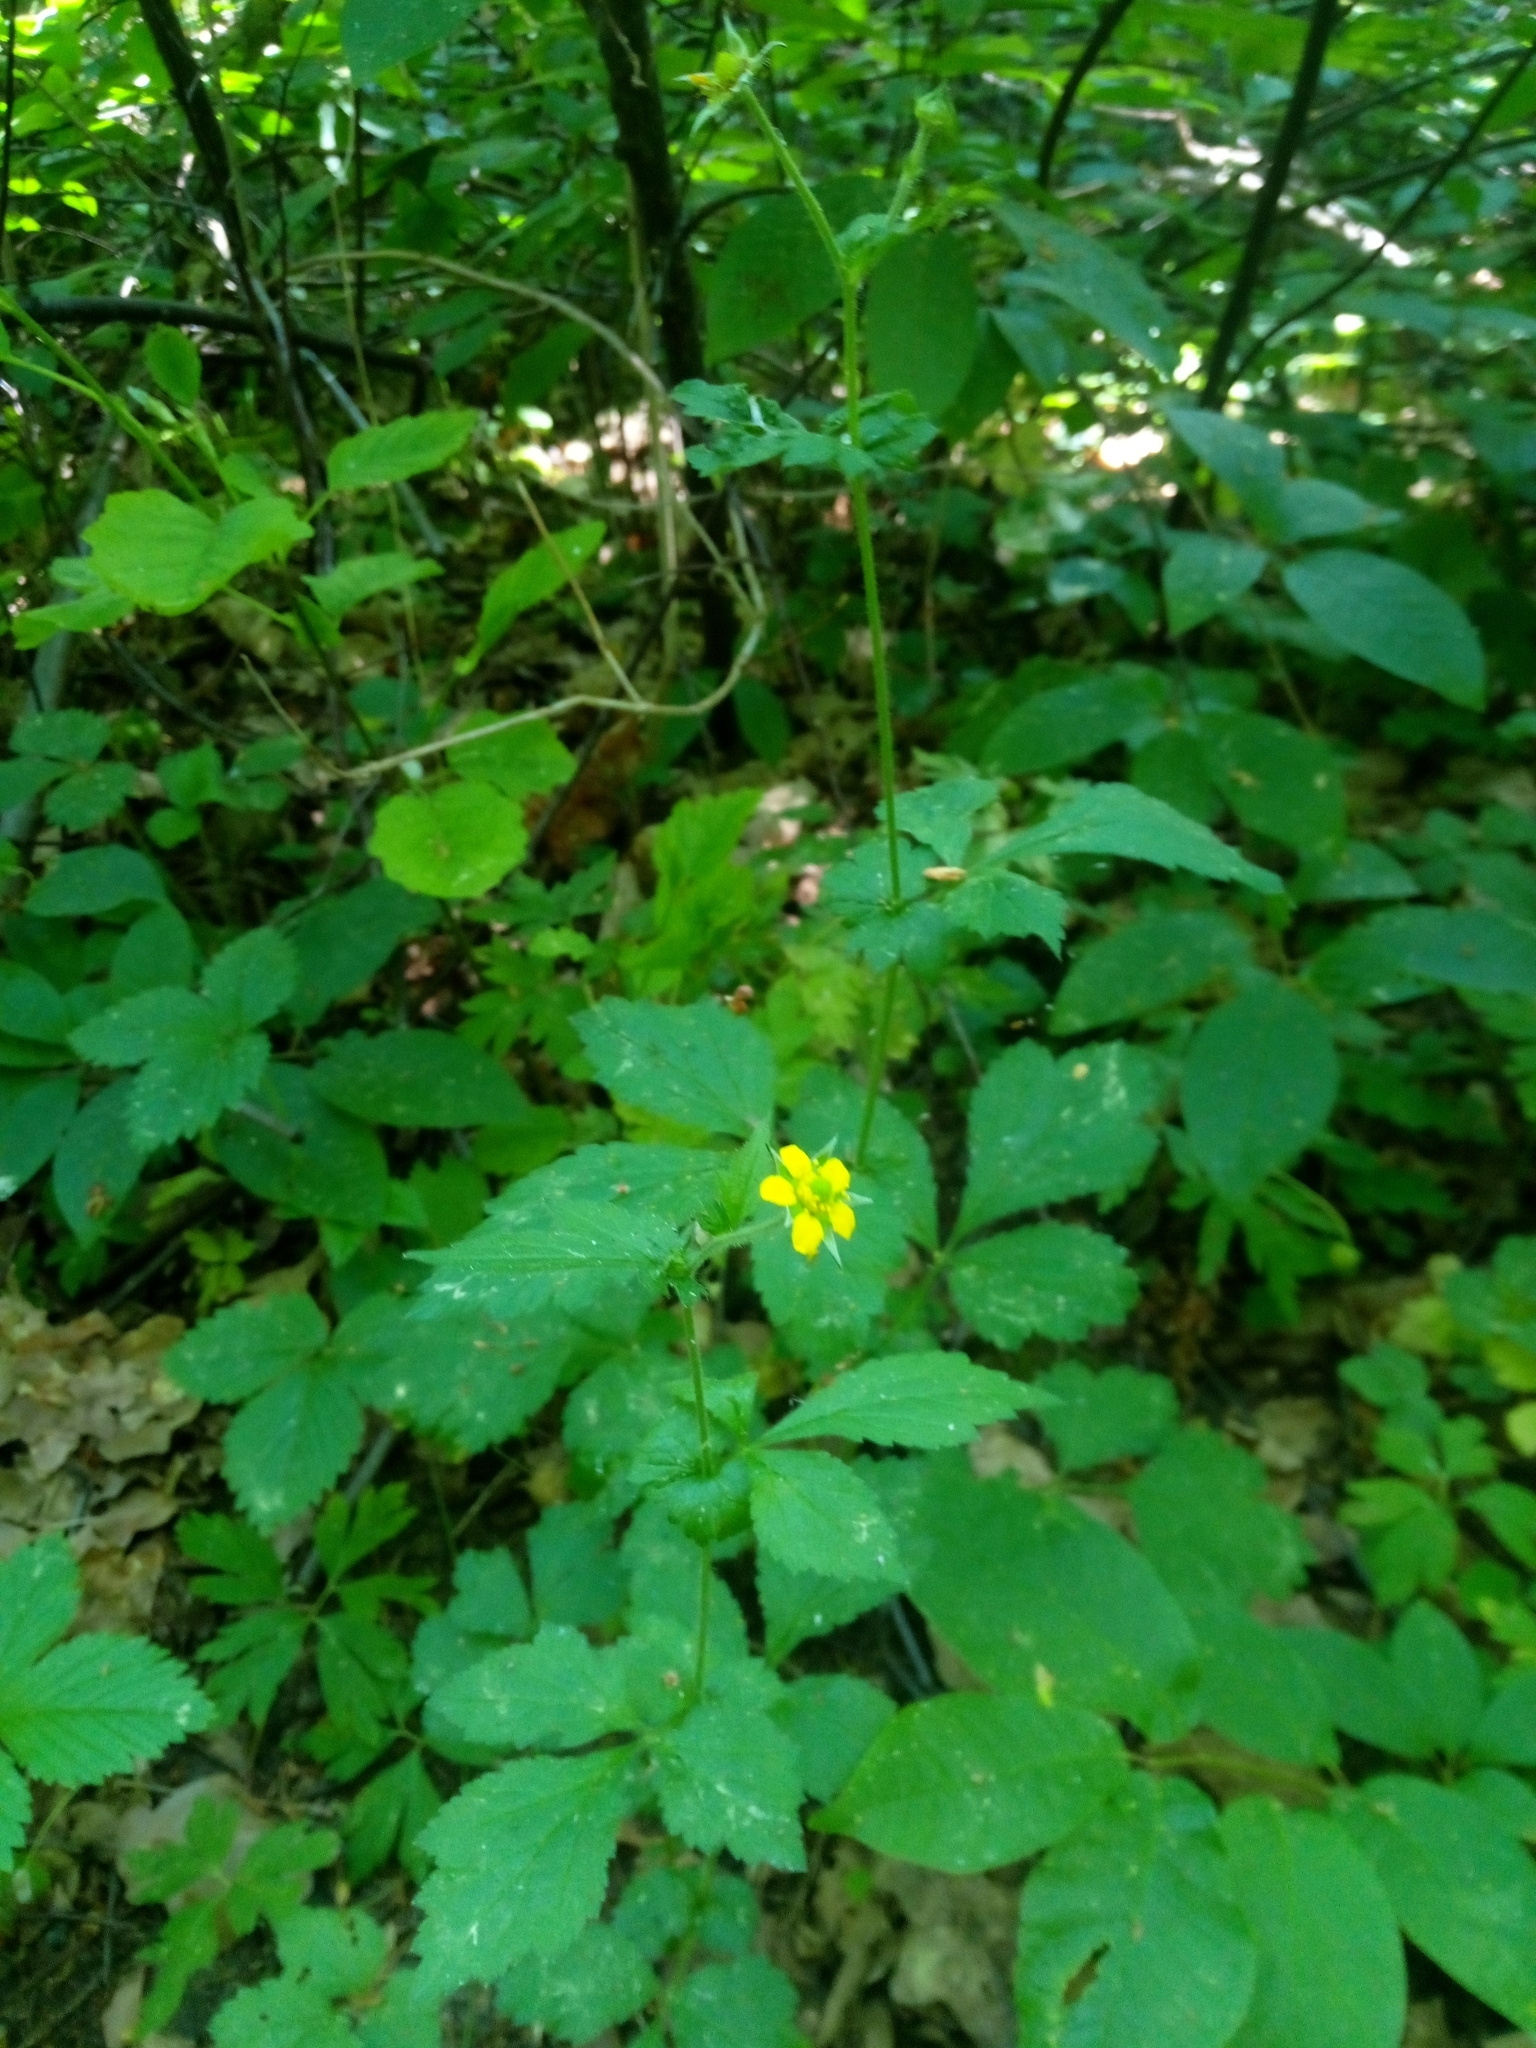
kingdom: Plantae
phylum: Tracheophyta
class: Magnoliopsida
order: Rosales
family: Rosaceae
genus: Geum
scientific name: Geum urbanum
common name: Wood avens
